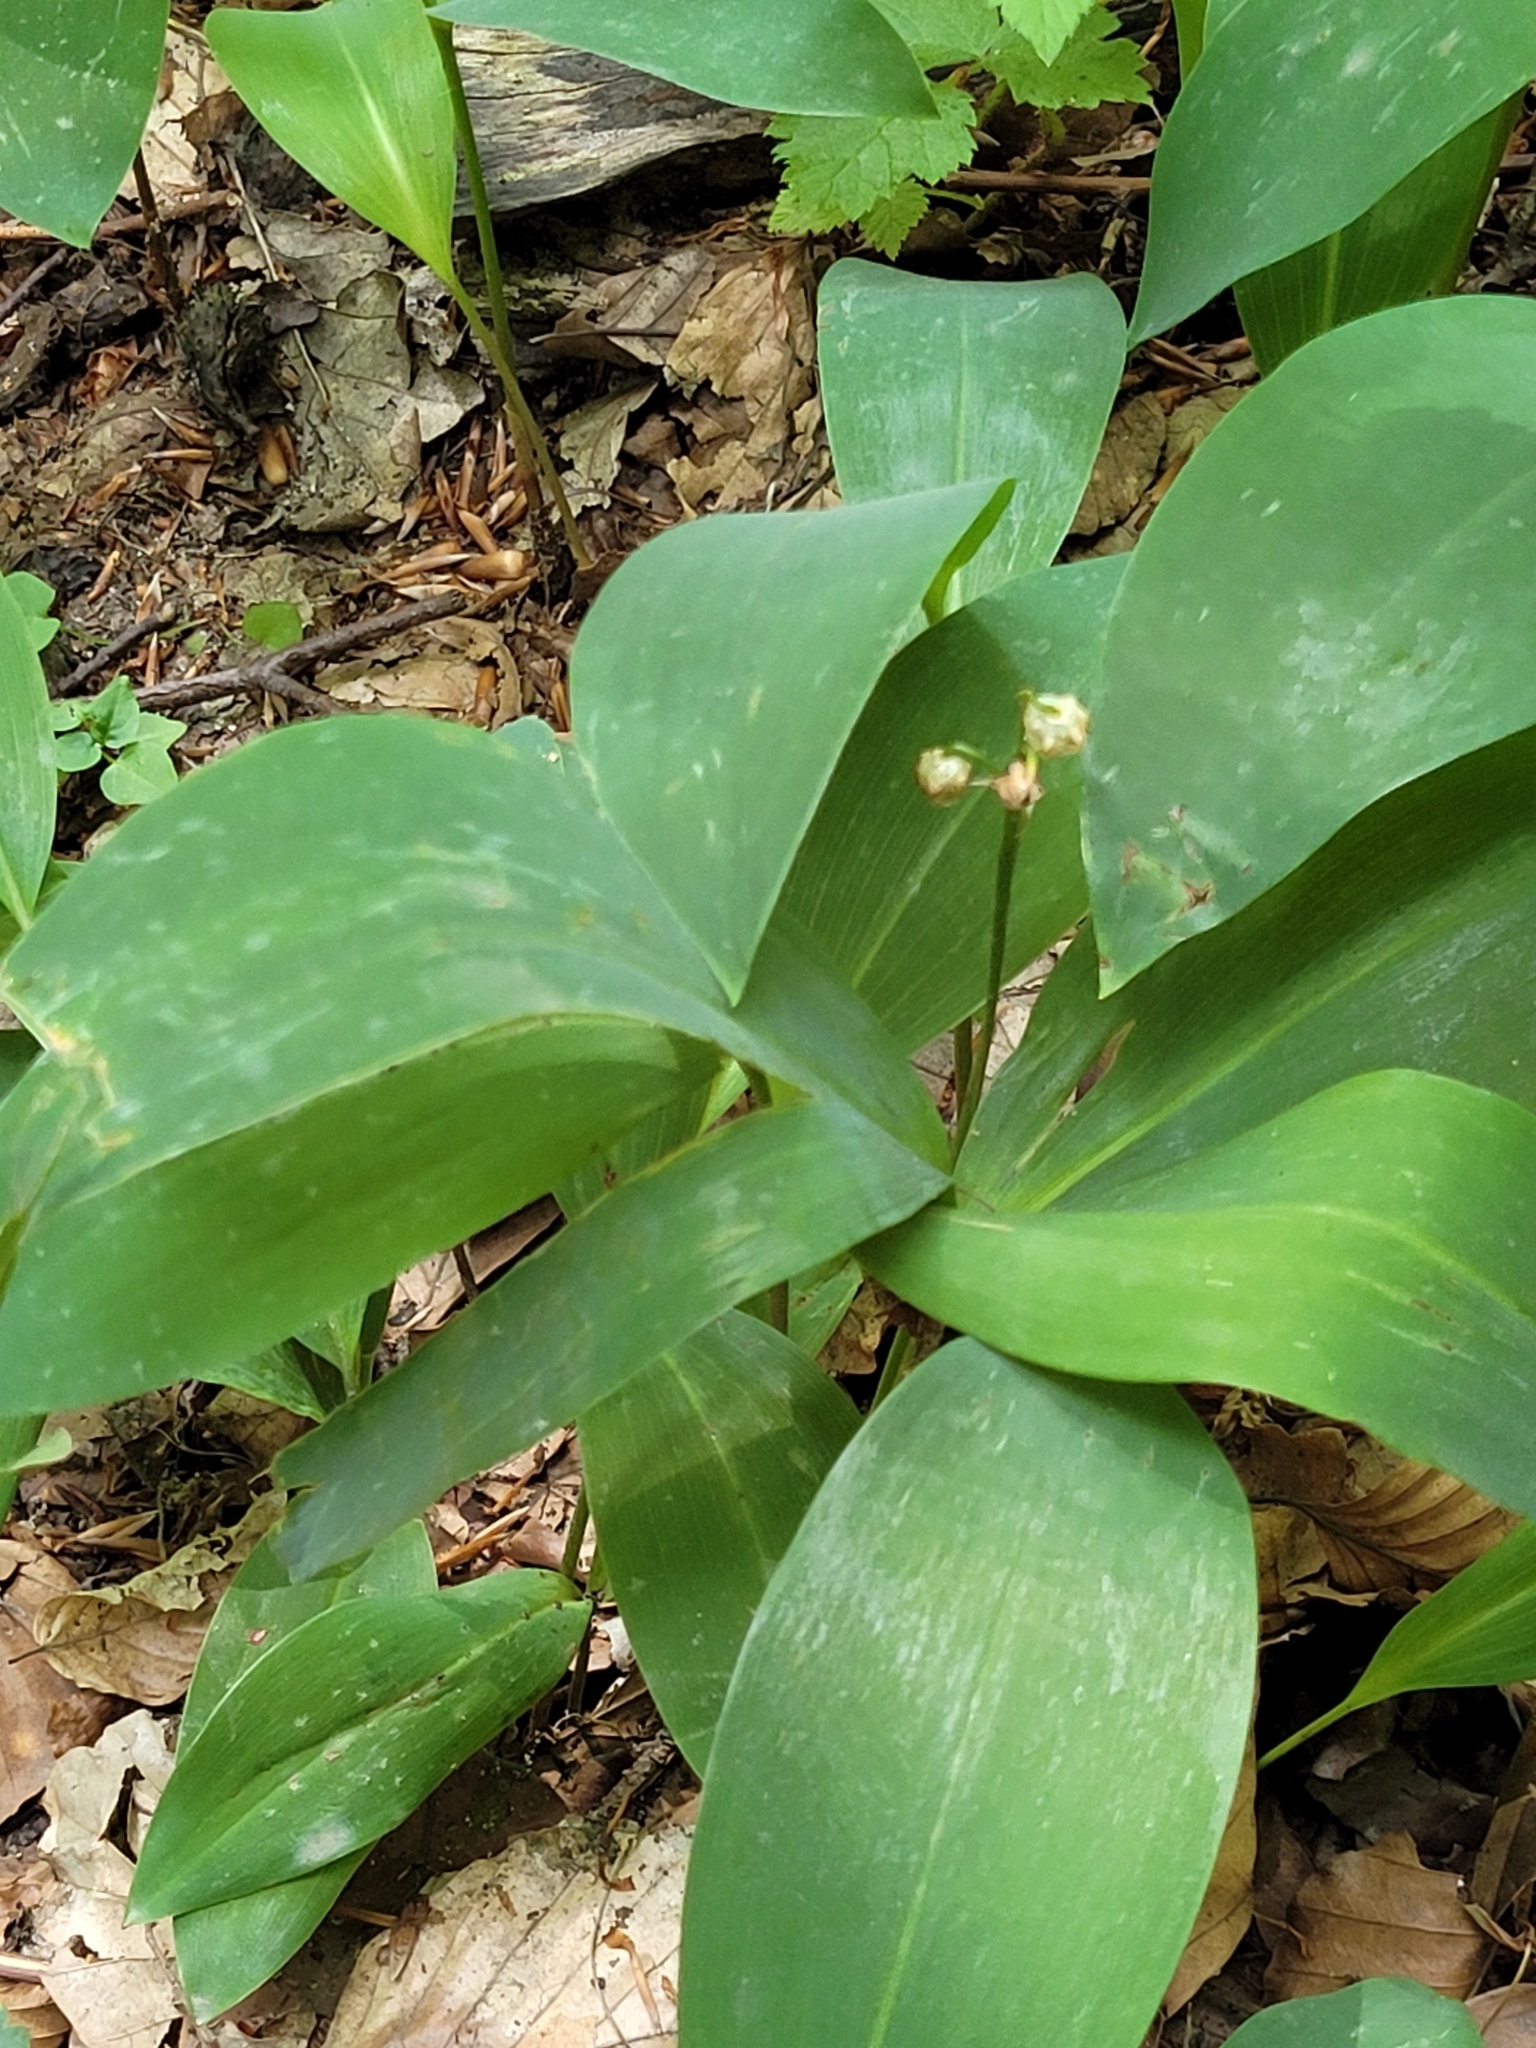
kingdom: Plantae
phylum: Tracheophyta
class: Liliopsida
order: Asparagales
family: Asparagaceae
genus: Convallaria
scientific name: Convallaria majalis
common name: Lily-of-the-valley
